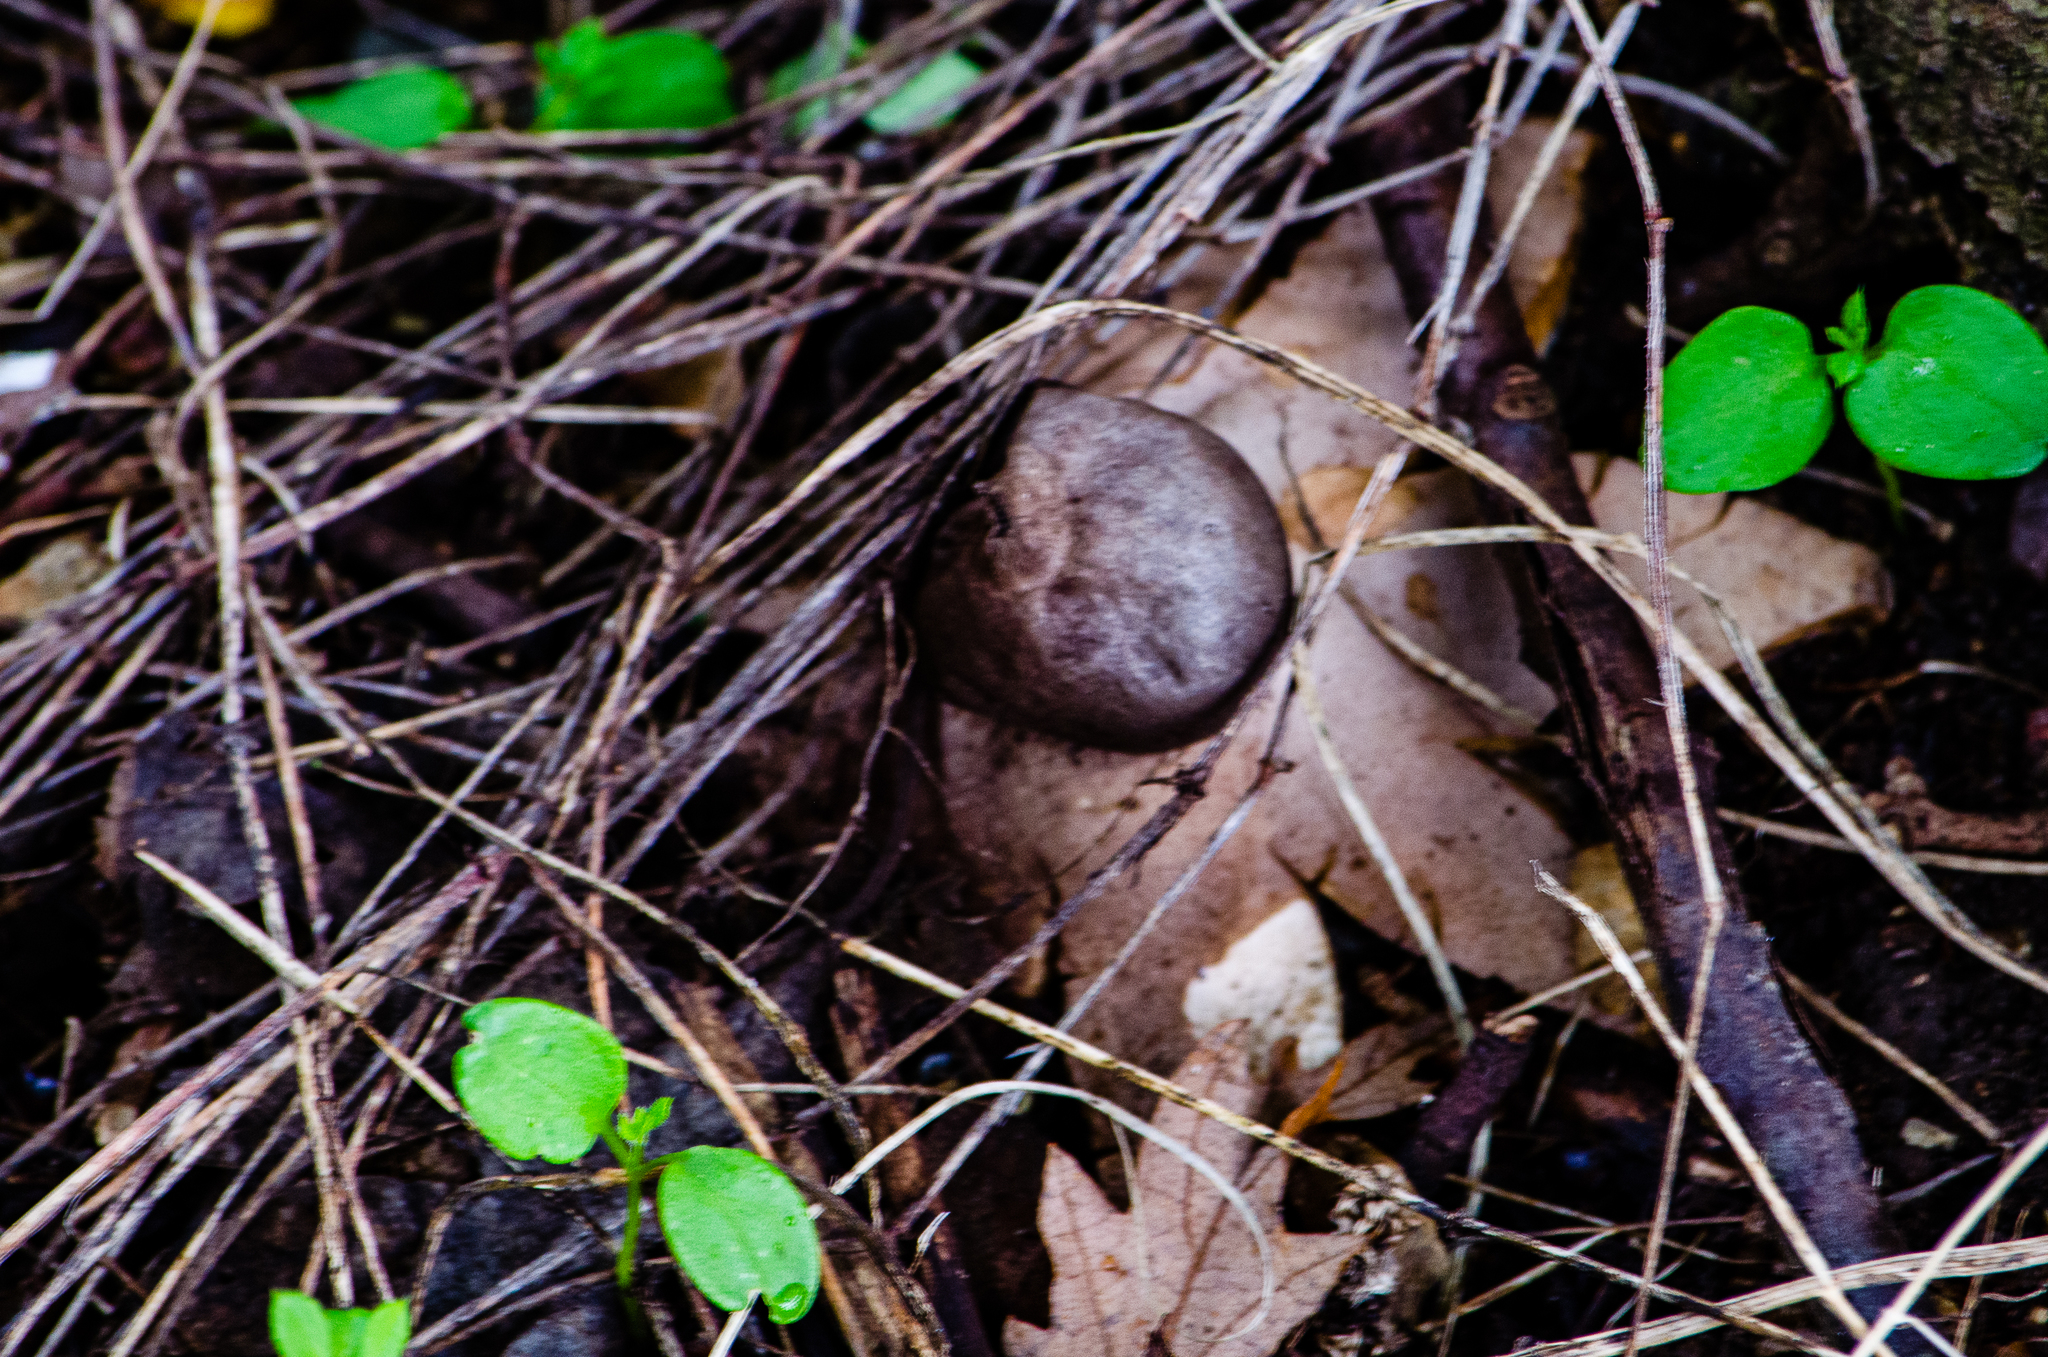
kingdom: Fungi
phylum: Basidiomycota
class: Agaricomycetes
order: Geastrales
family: Geastraceae
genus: Geastrum
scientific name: Geastrum coronatum
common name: Crowned earthstar
